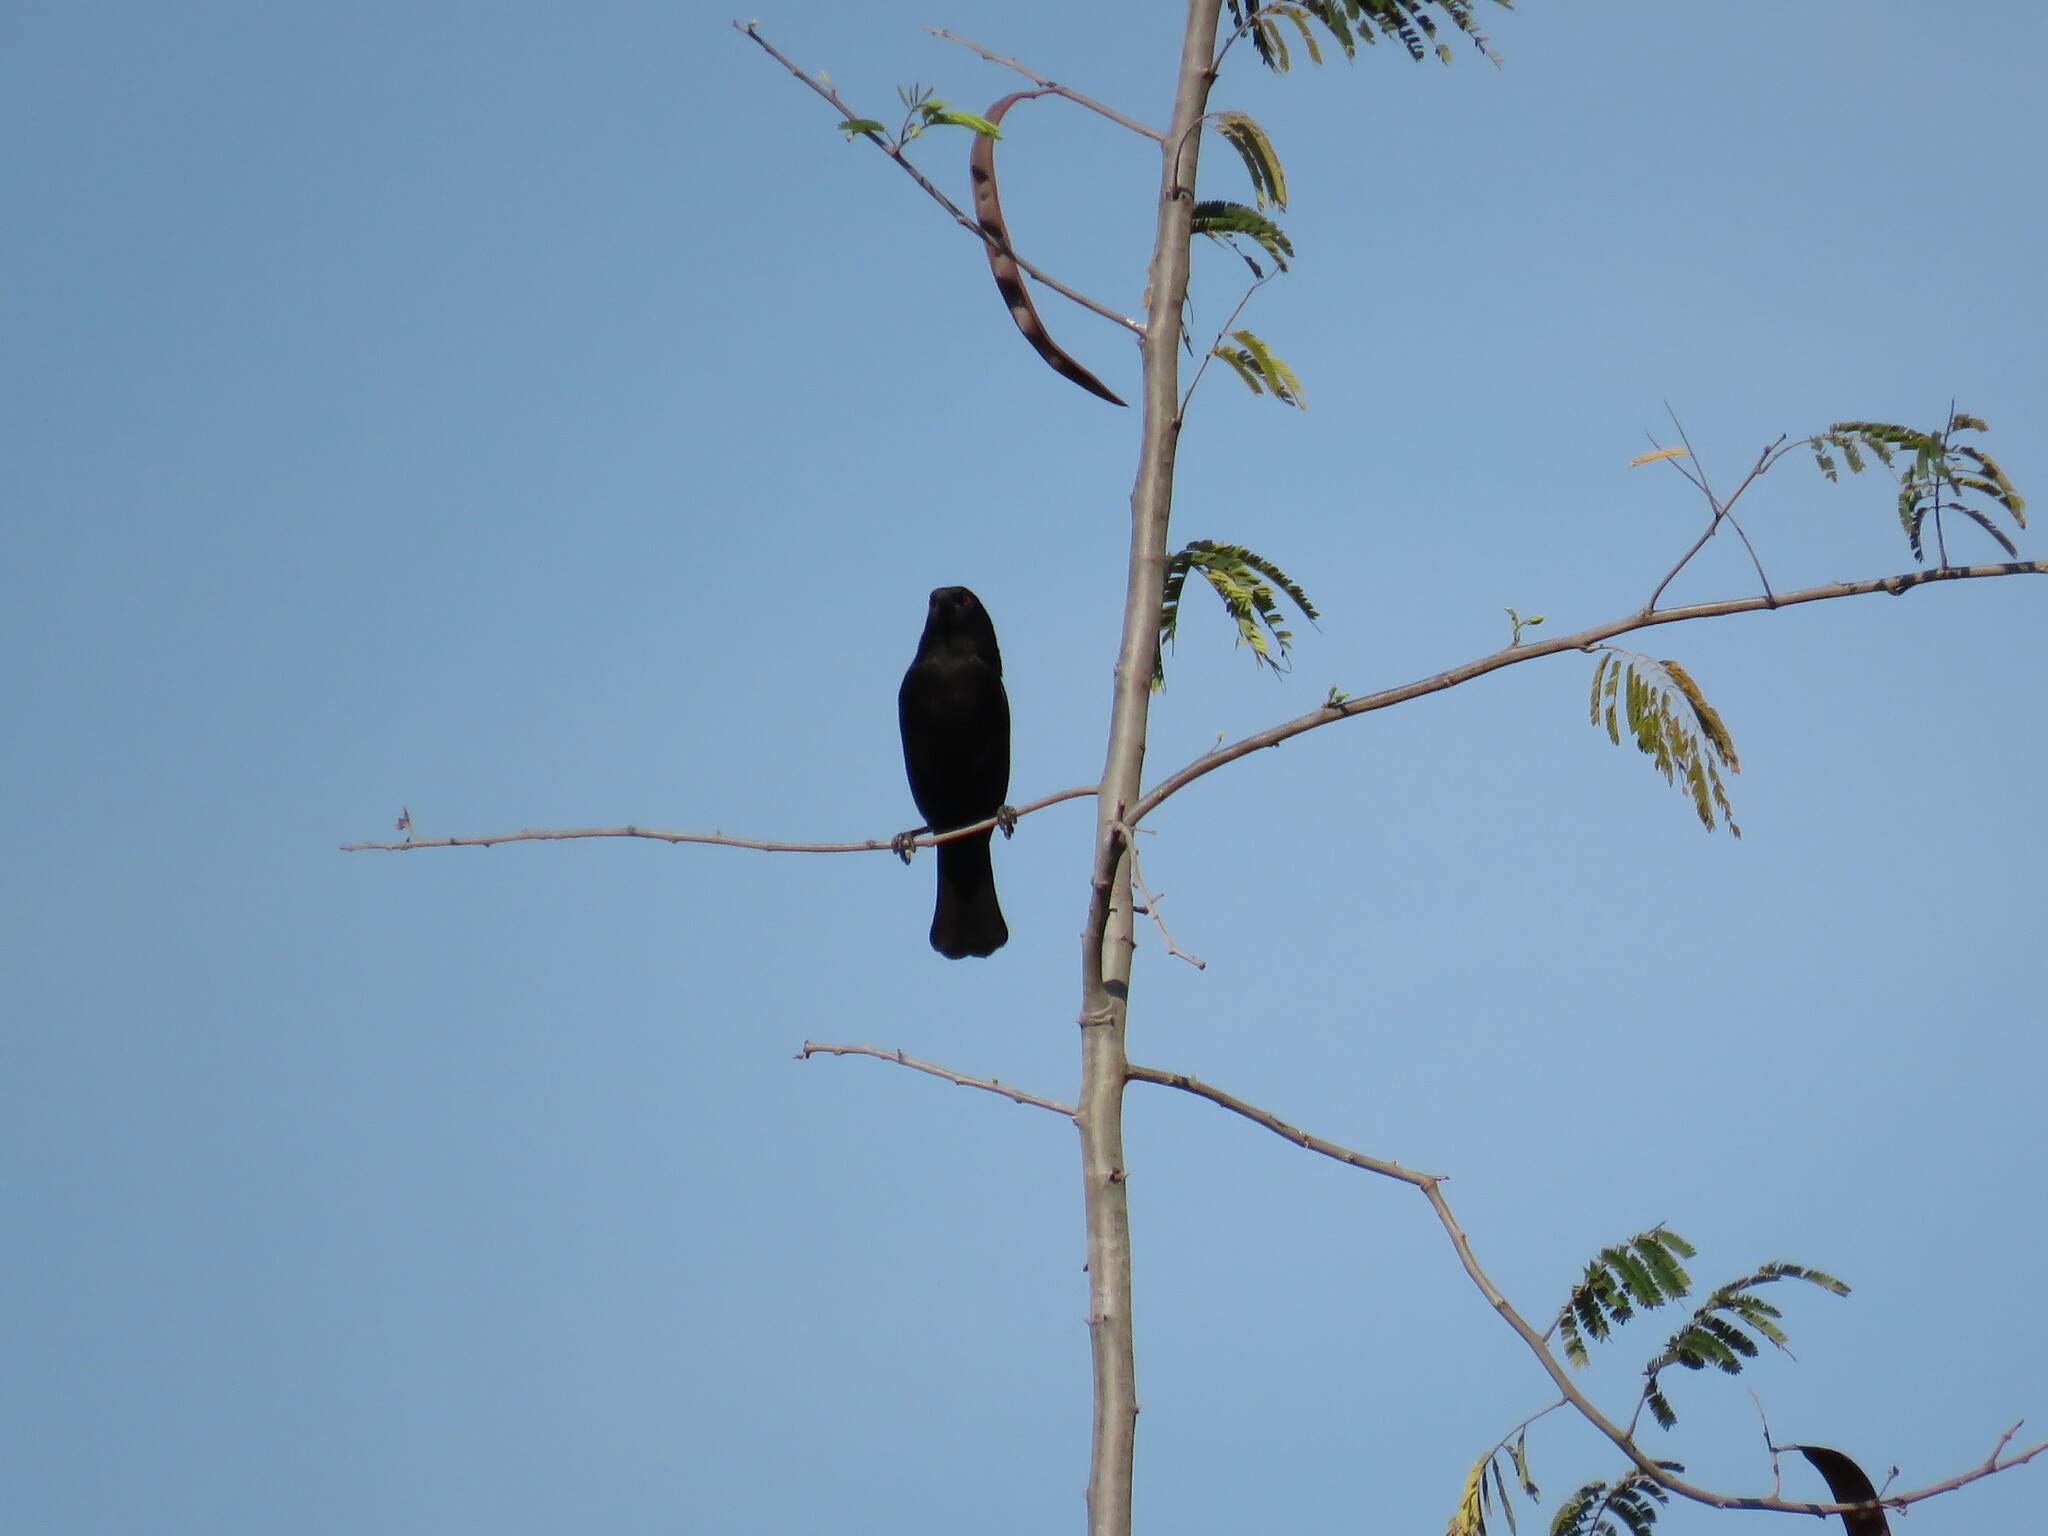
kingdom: Animalia
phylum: Chordata
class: Aves
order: Passeriformes
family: Icteridae
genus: Molothrus
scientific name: Molothrus aeneus
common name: Bronzed cowbird
